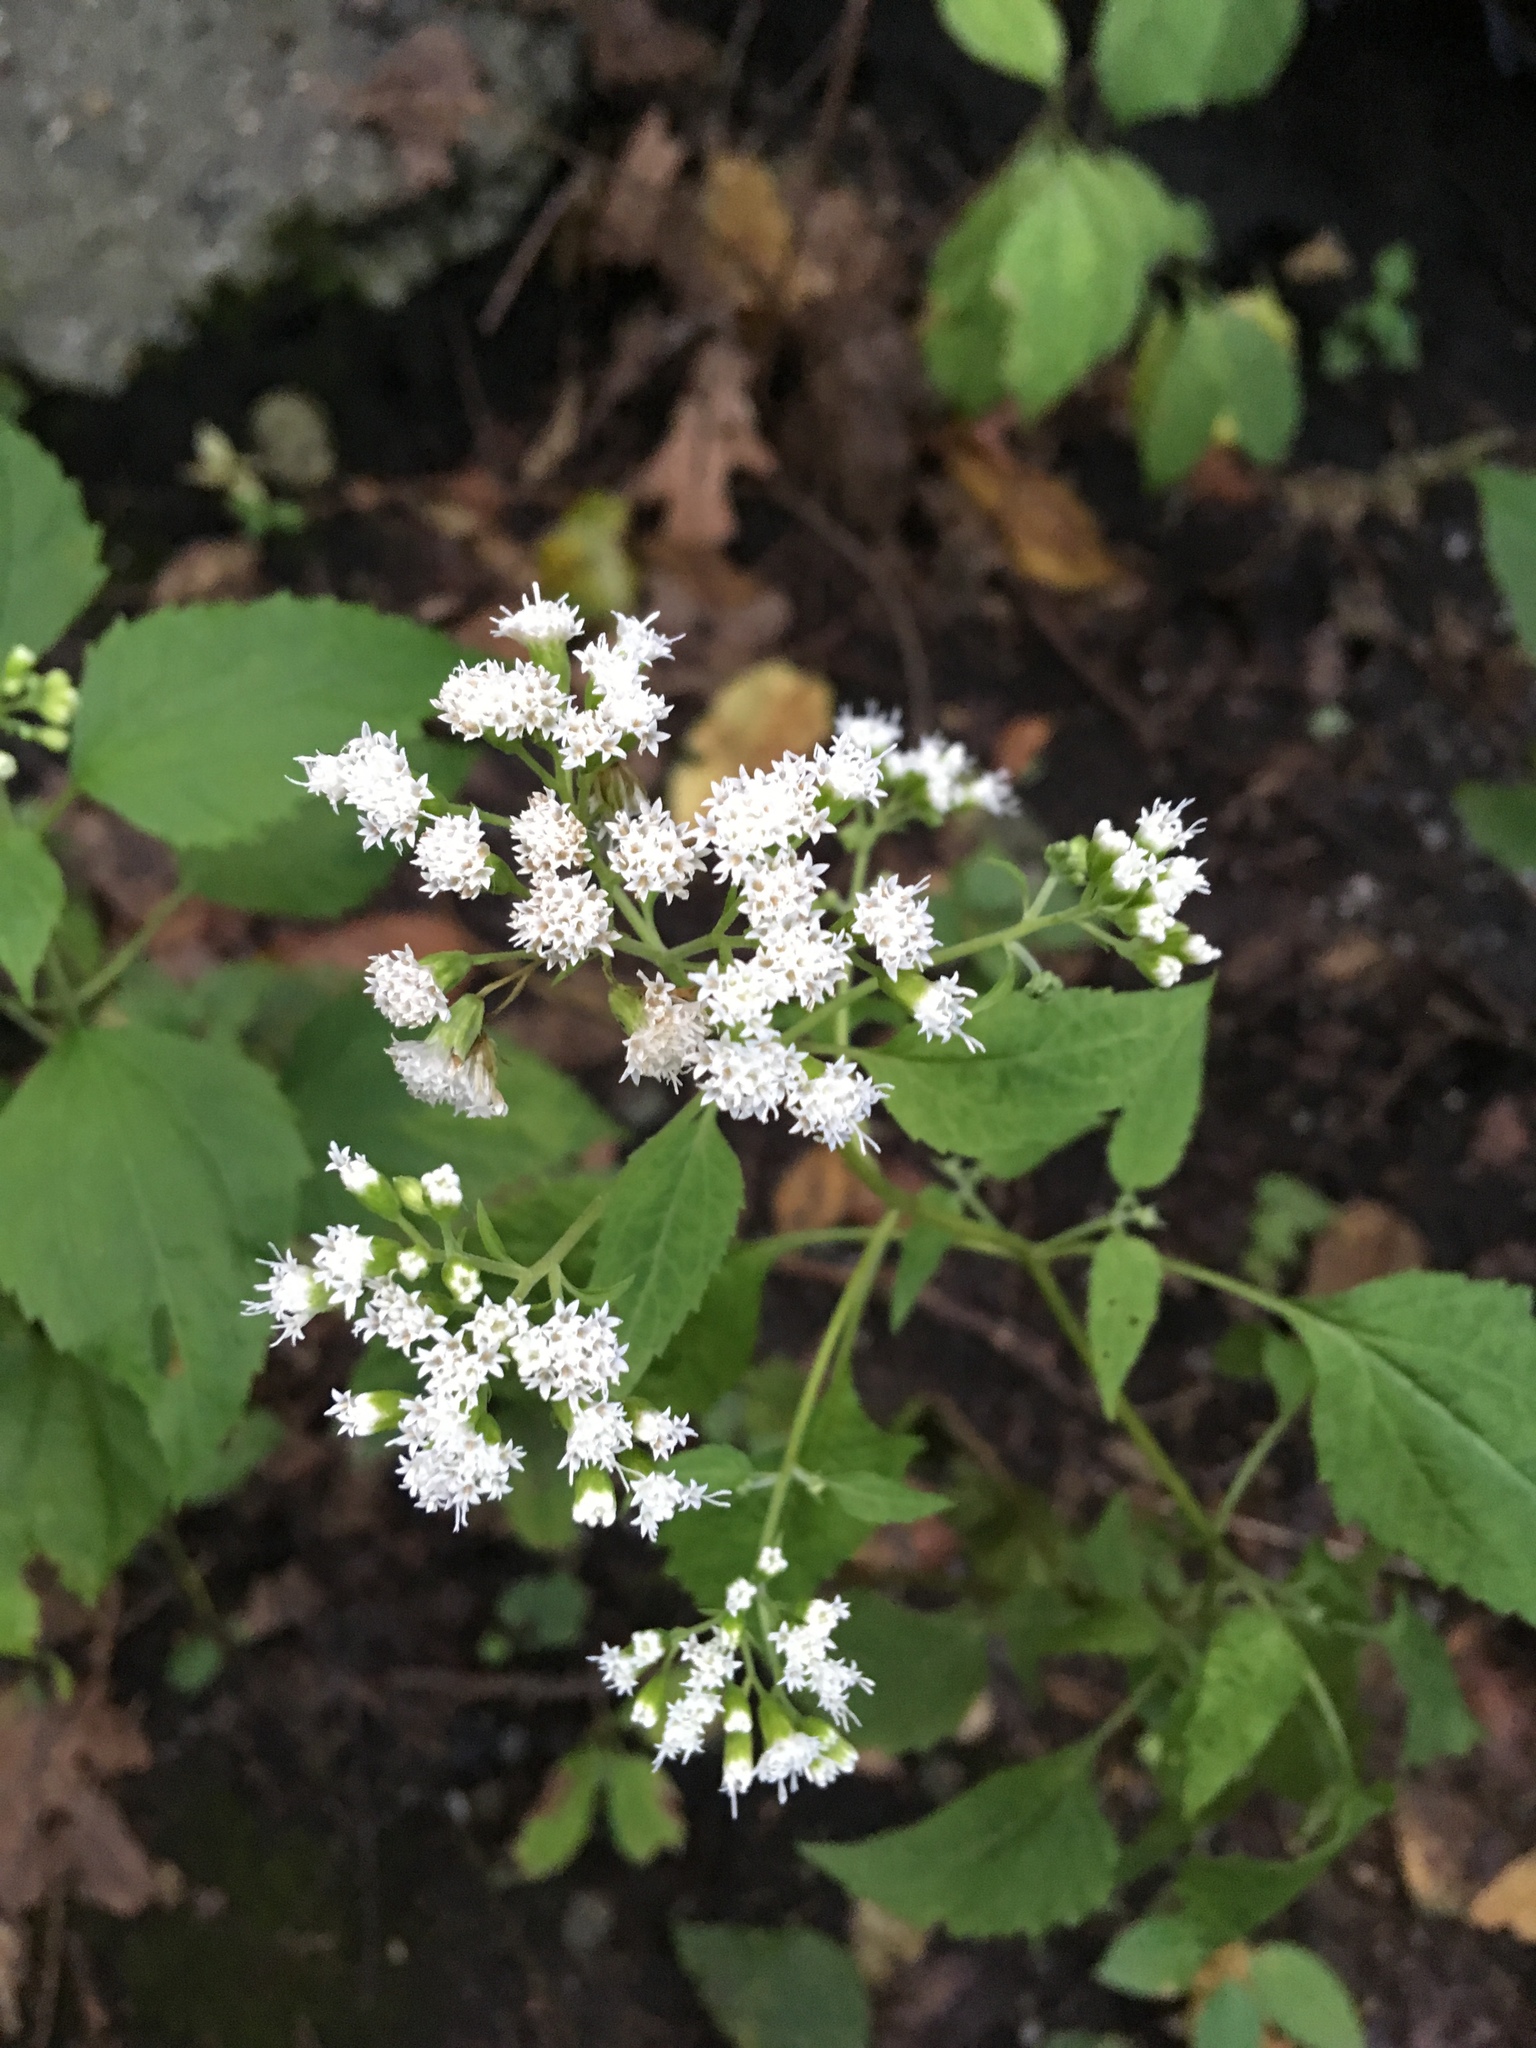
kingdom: Plantae
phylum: Tracheophyta
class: Magnoliopsida
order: Asterales
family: Asteraceae
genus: Ageratina
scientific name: Ageratina altissima
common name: White snakeroot
